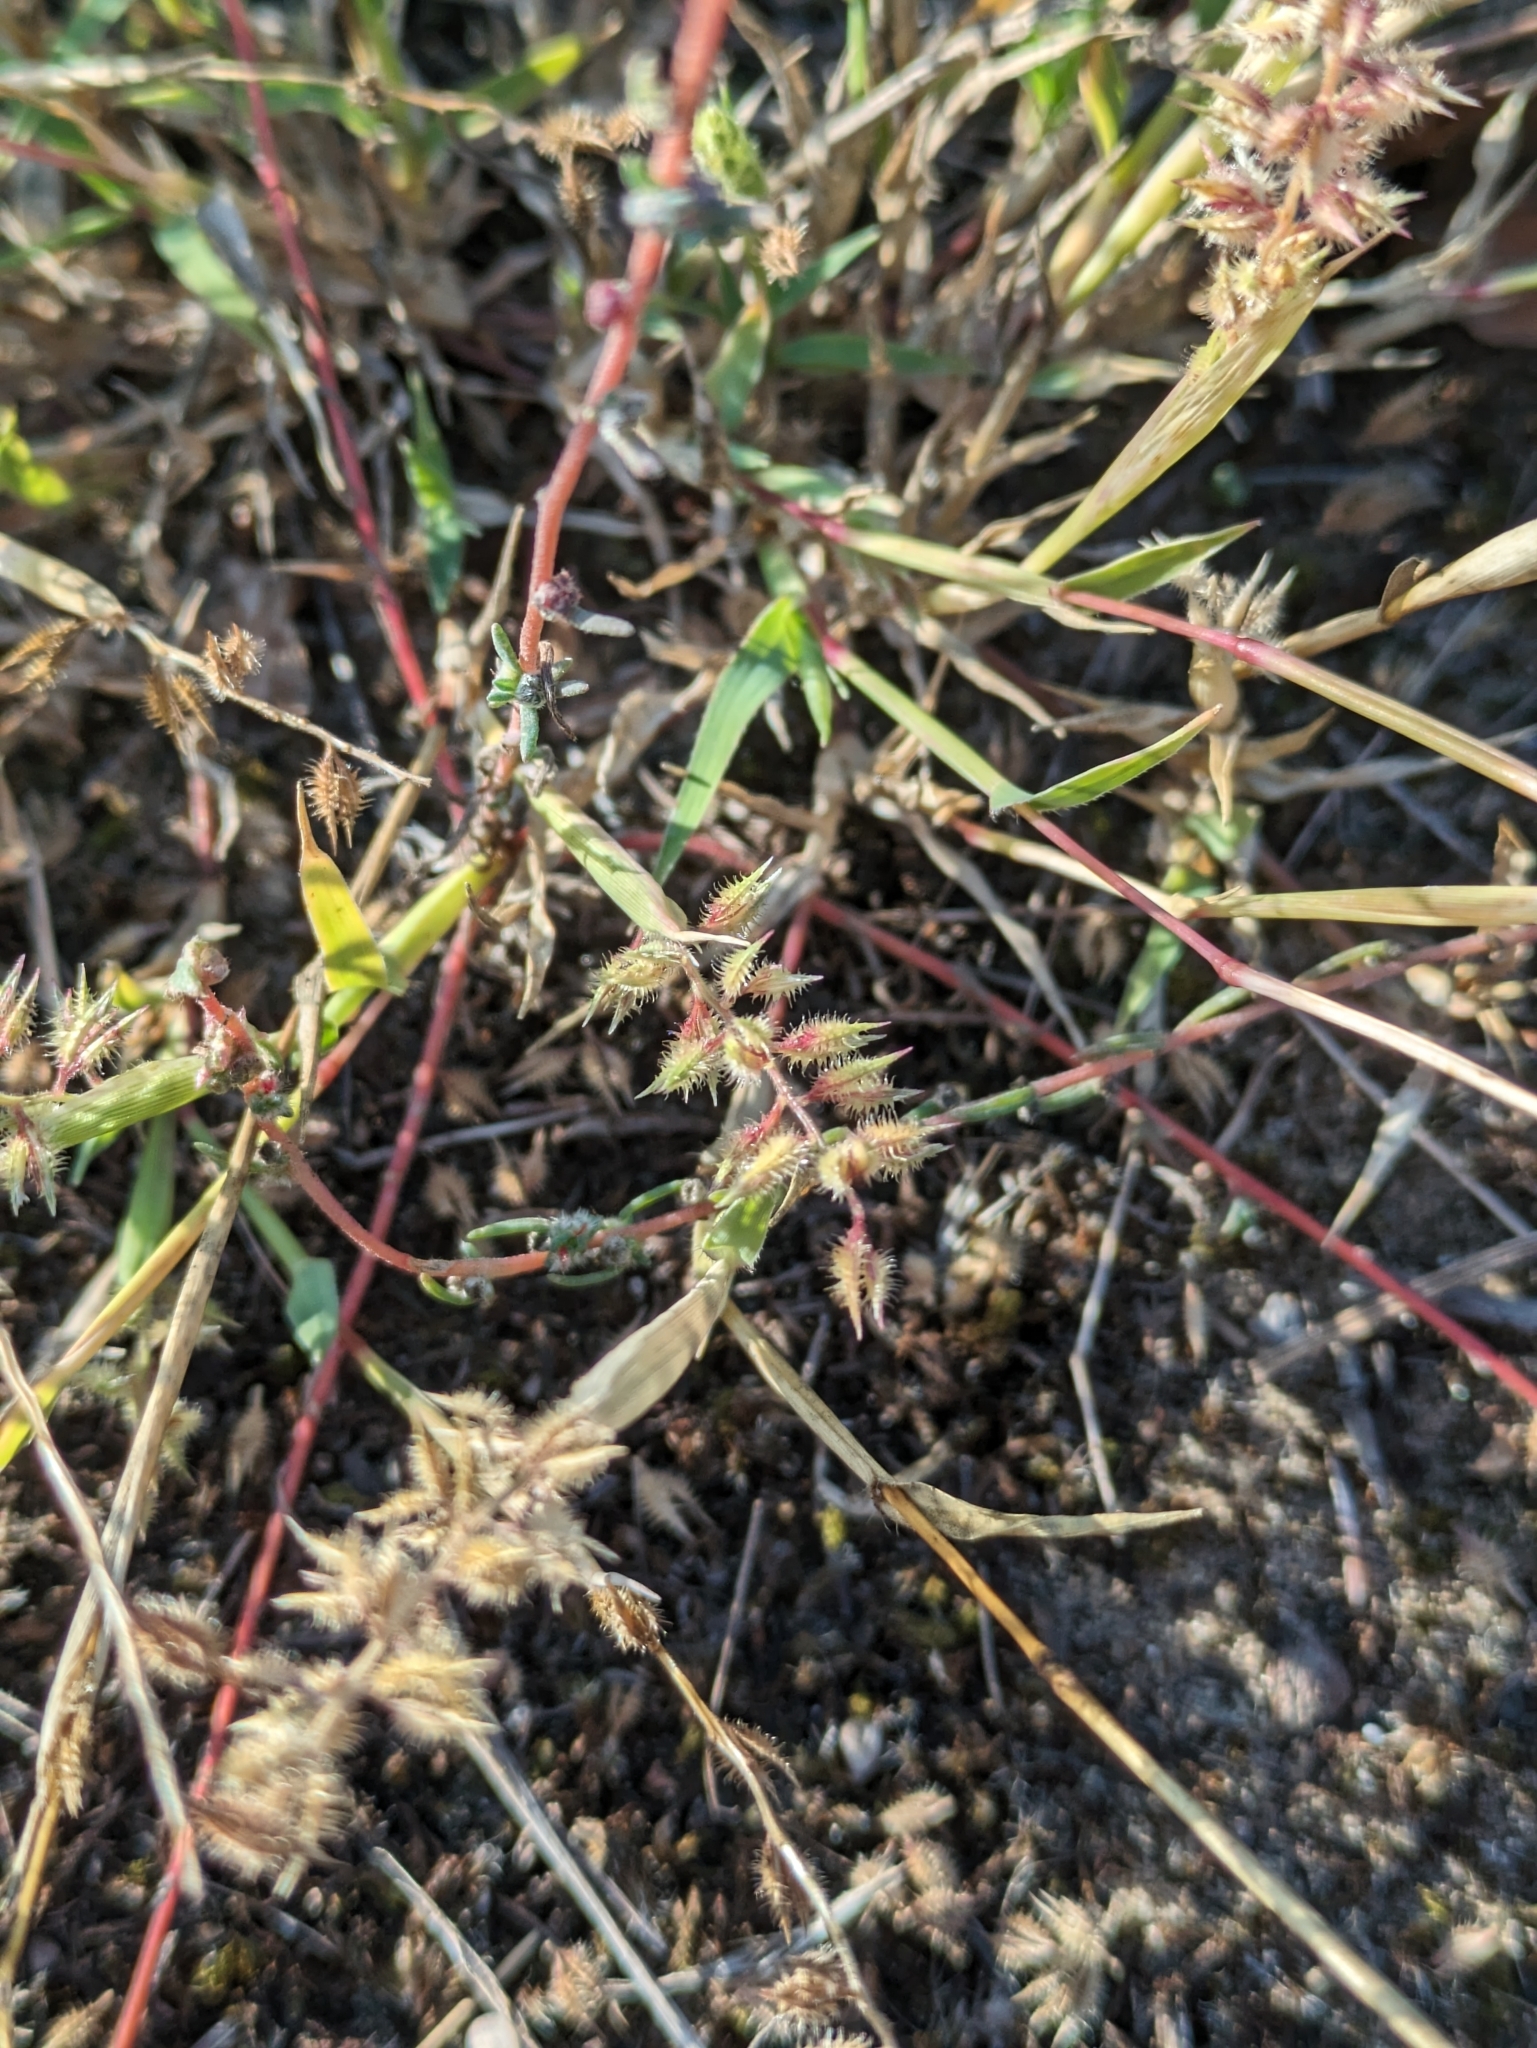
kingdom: Plantae
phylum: Tracheophyta
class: Liliopsida
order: Poales
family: Poaceae
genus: Tragus
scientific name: Tragus racemosus
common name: European bur-grass
